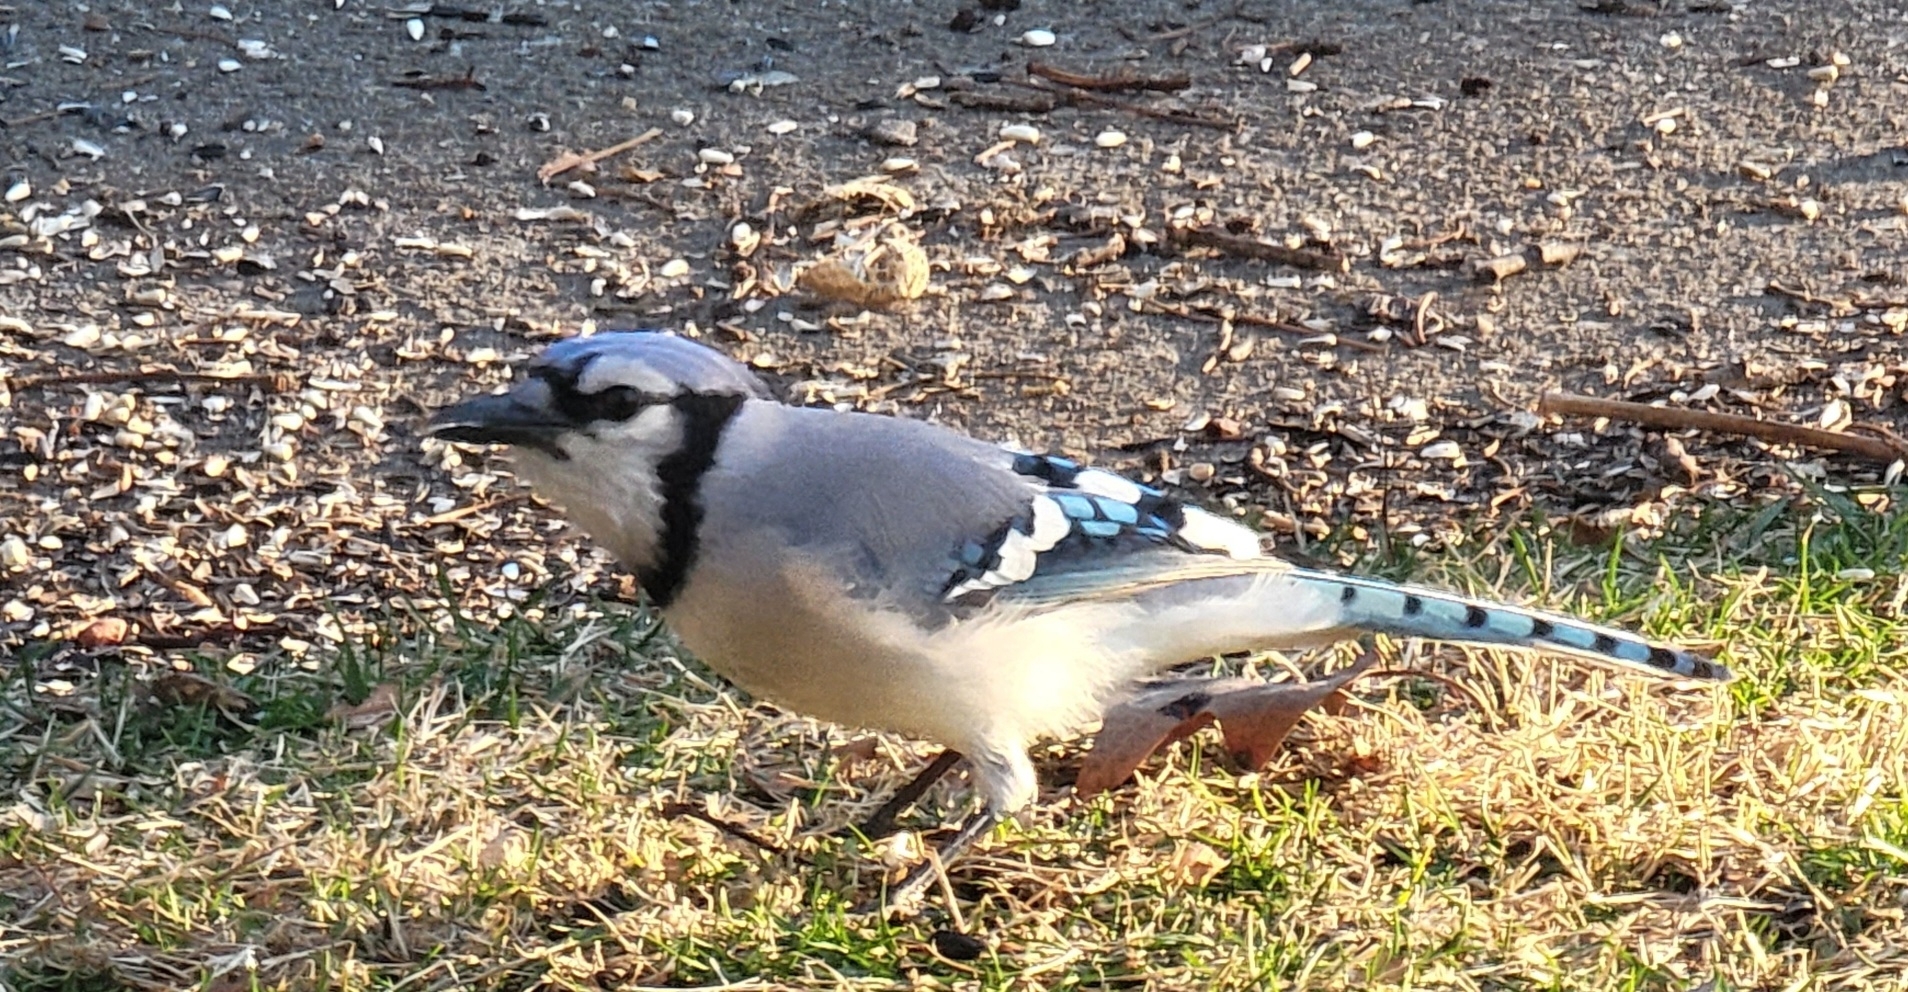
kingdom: Animalia
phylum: Chordata
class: Aves
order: Passeriformes
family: Corvidae
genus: Cyanocitta
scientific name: Cyanocitta cristata
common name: Blue jay
